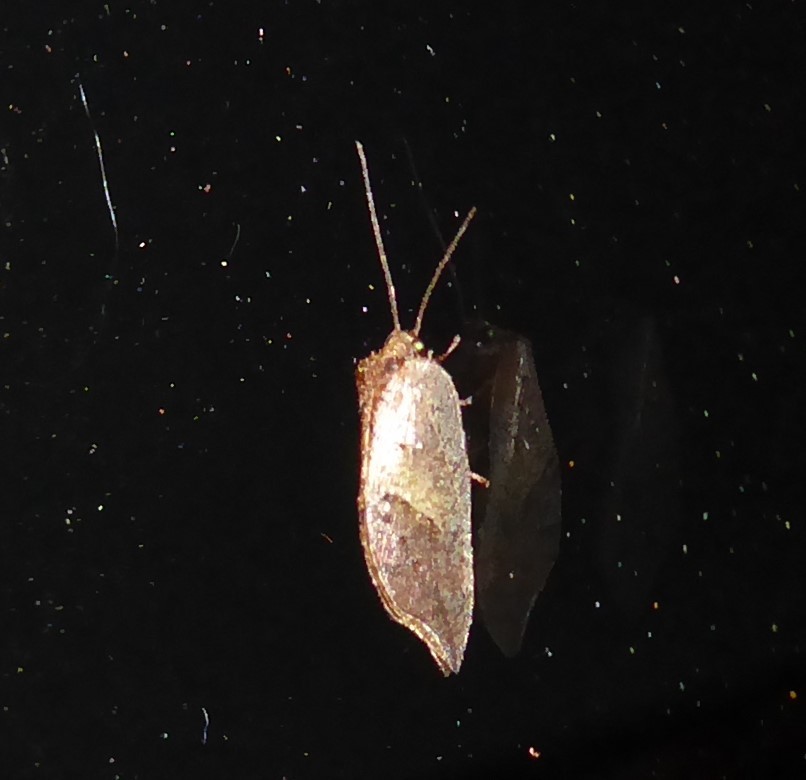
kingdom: Animalia
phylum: Arthropoda
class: Insecta
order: Neuroptera
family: Hemerobiidae
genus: Drepanacra
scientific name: Drepanacra binocula
